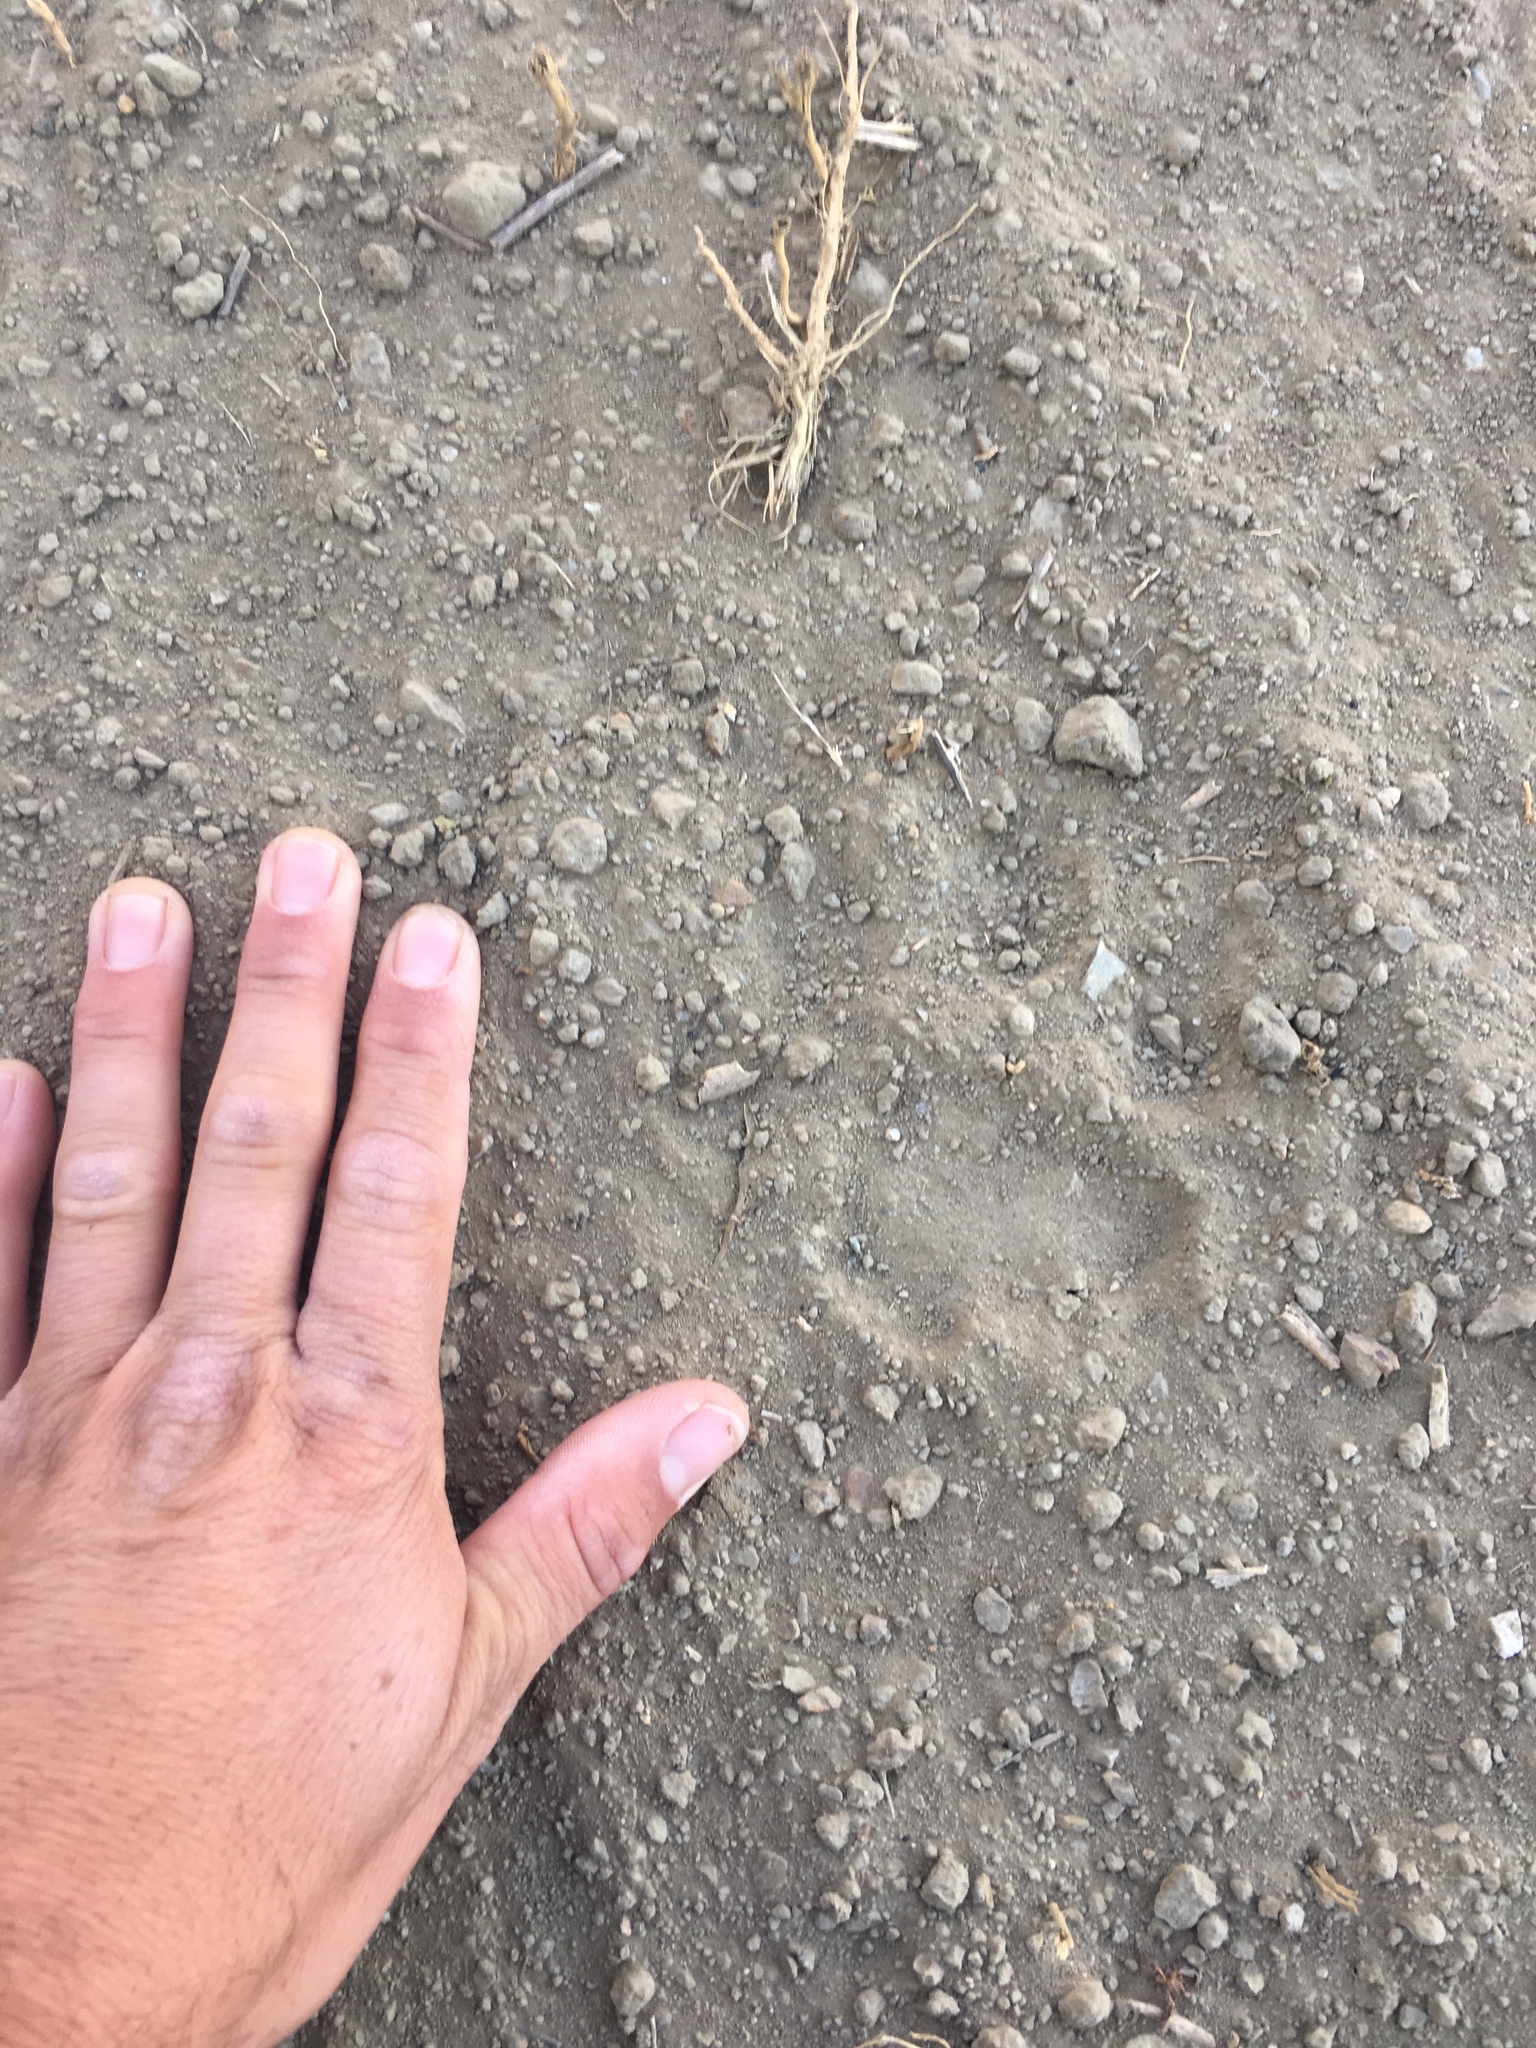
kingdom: Animalia
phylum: Chordata
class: Mammalia
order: Carnivora
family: Felidae
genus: Puma
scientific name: Puma concolor
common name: Puma
